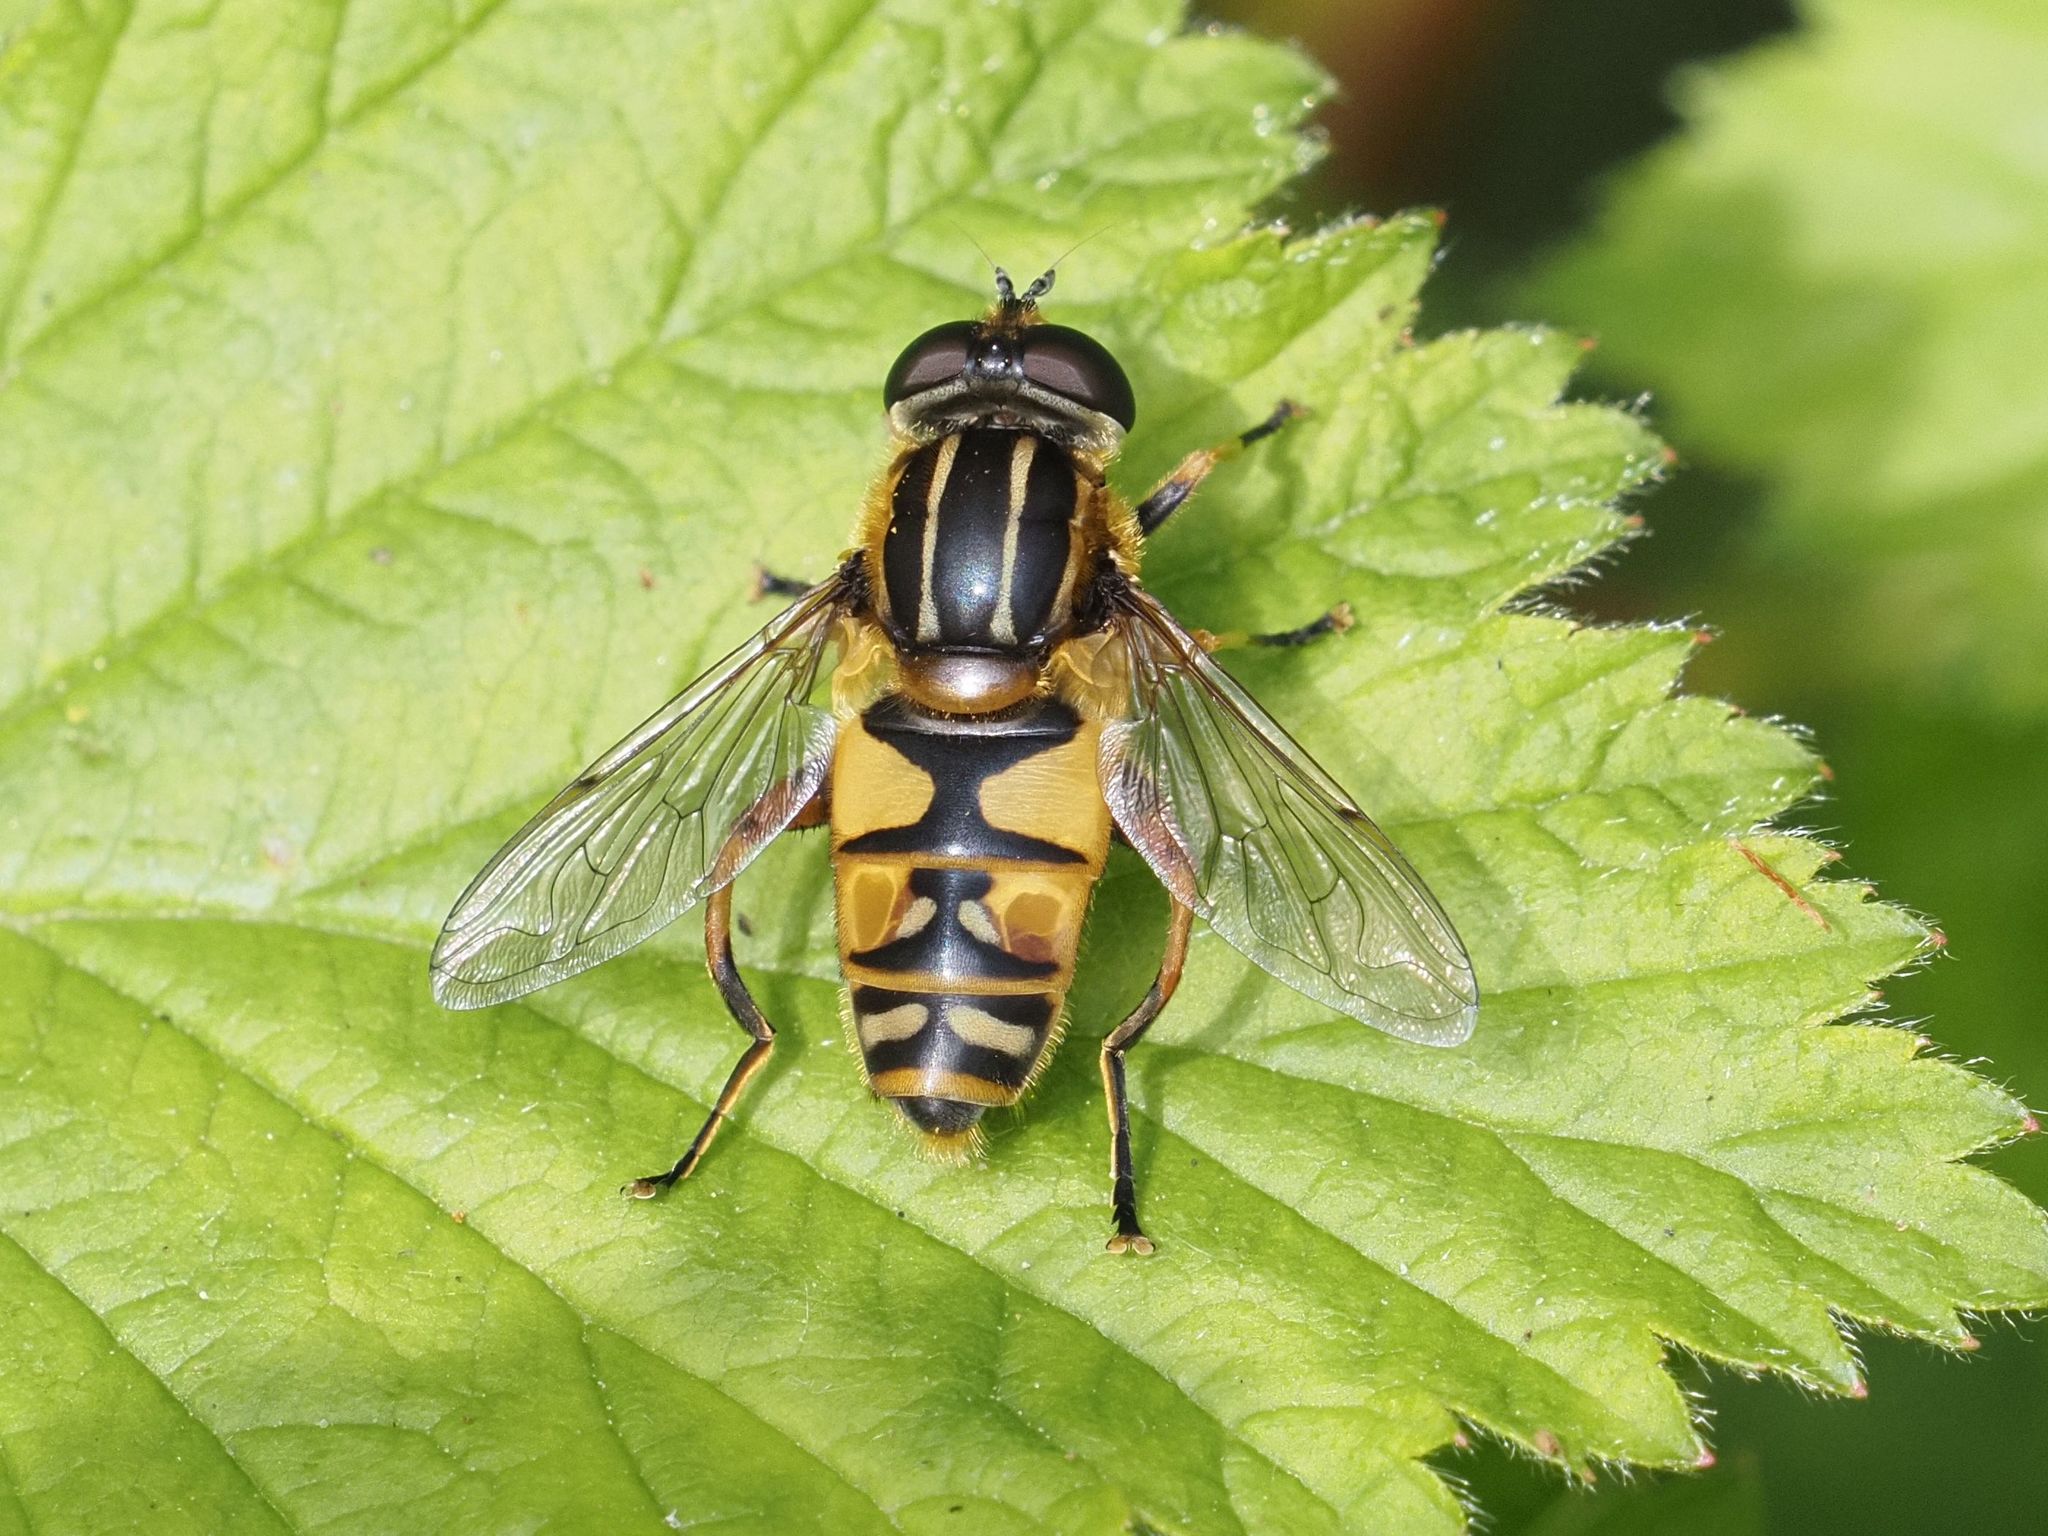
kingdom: Animalia
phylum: Arthropoda
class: Insecta
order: Diptera
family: Syrphidae
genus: Helophilus
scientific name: Helophilus pendulus
